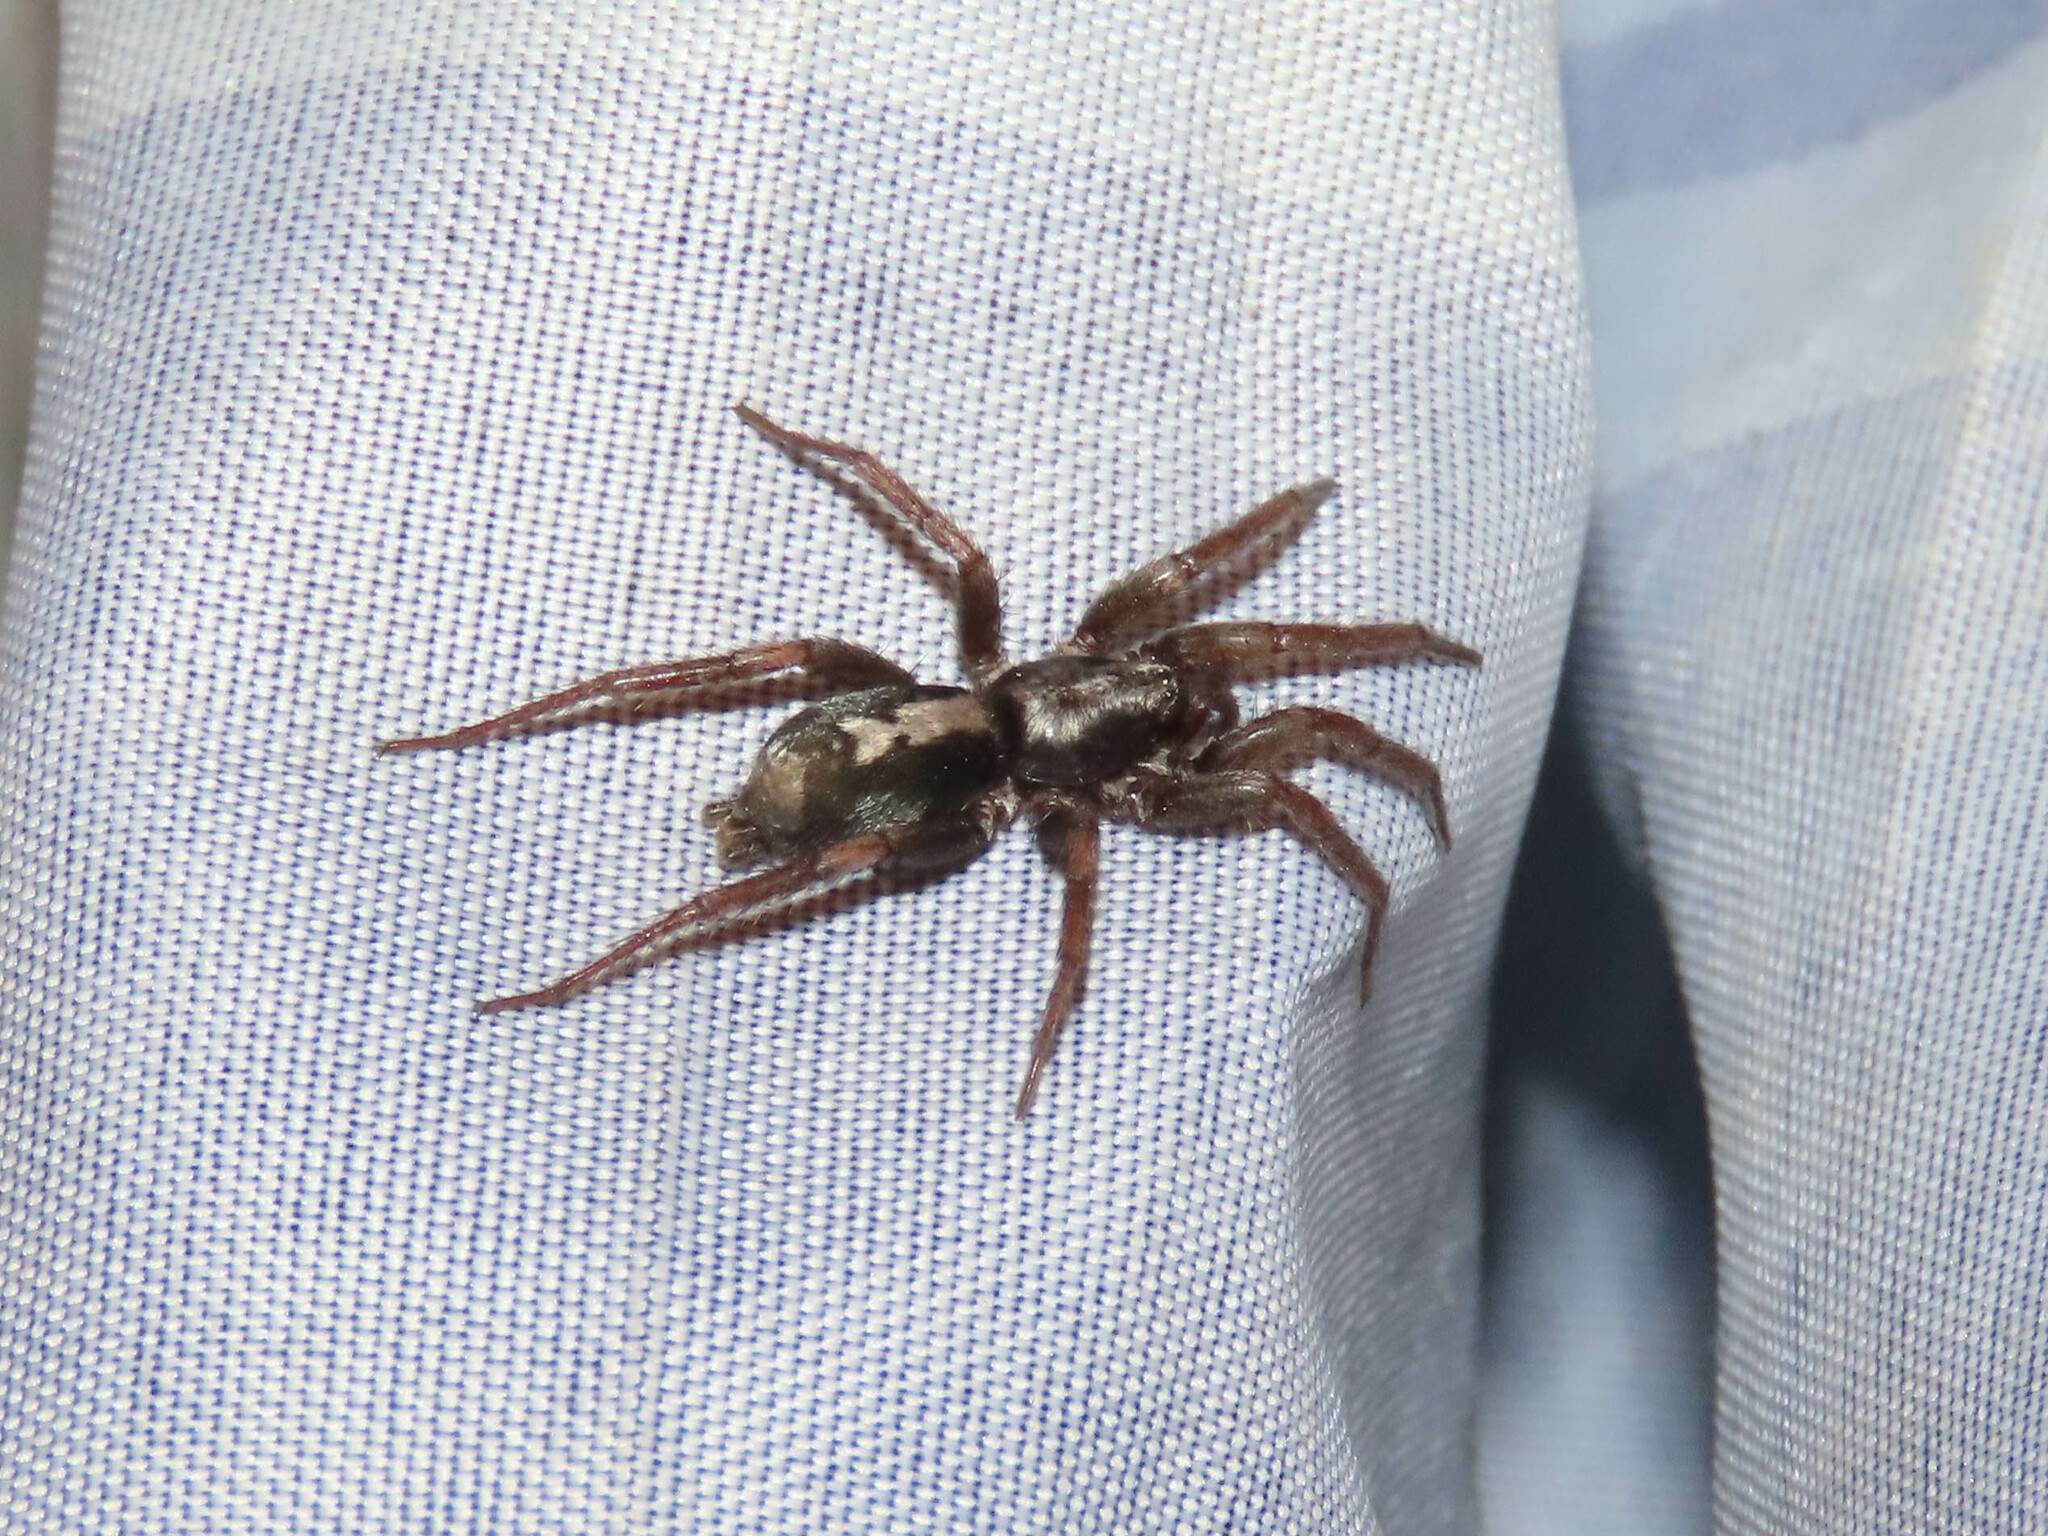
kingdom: Animalia
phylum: Arthropoda
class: Arachnida
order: Araneae
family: Gnaphosidae
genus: Herpyllus
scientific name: Herpyllus ecclesiasticus
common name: Eastern parson spider
